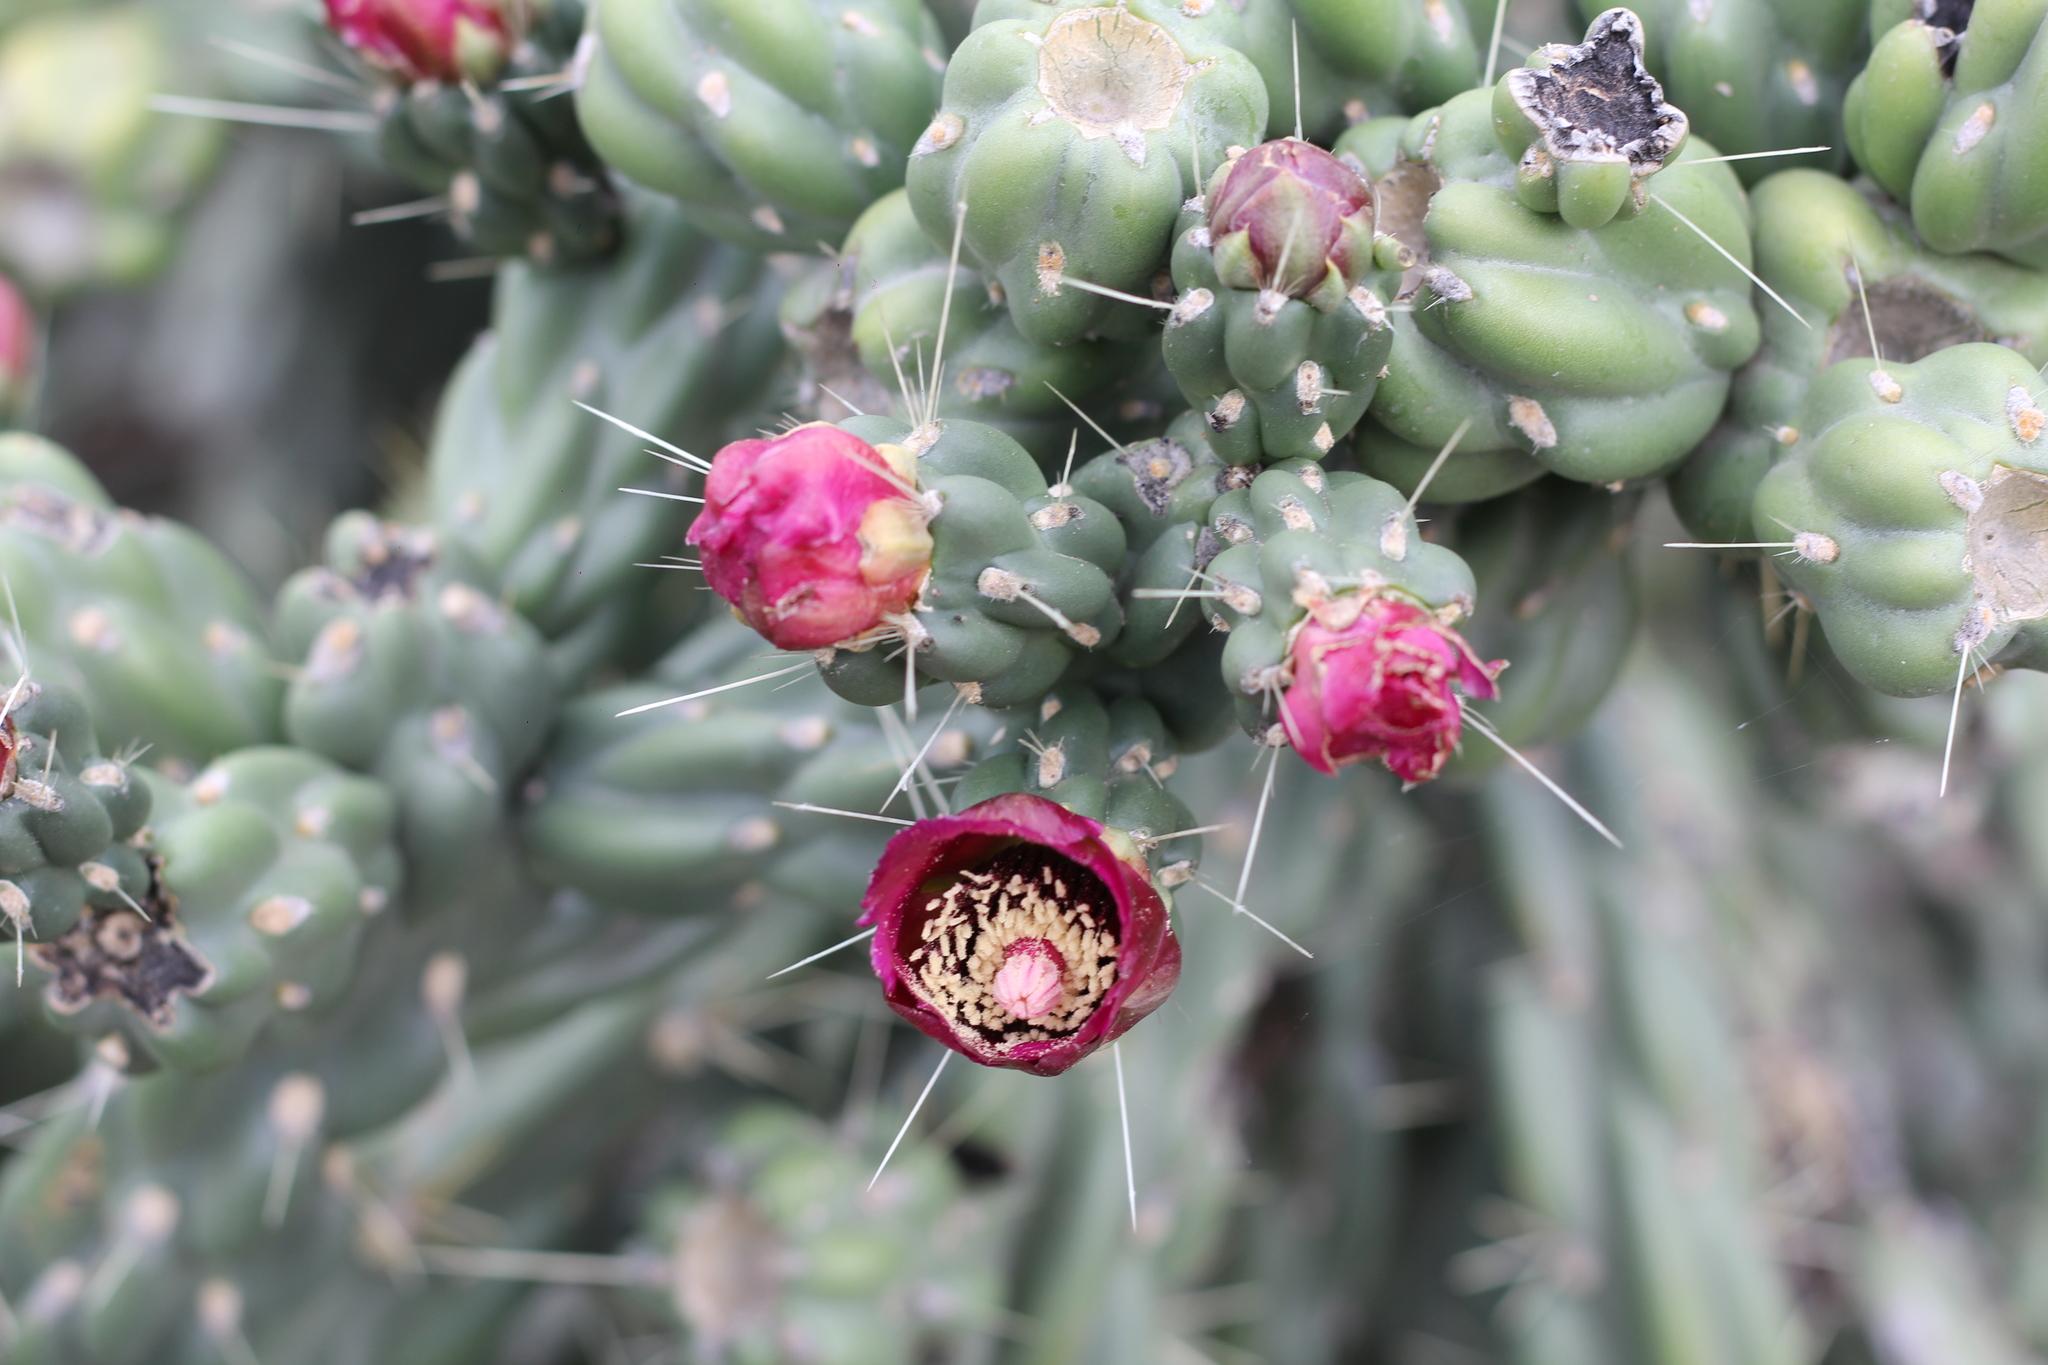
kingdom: Plantae
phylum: Tracheophyta
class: Magnoliopsida
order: Caryophyllales
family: Cactaceae
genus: Cylindropuntia
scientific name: Cylindropuntia imbricata
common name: Candelabrum cactus
